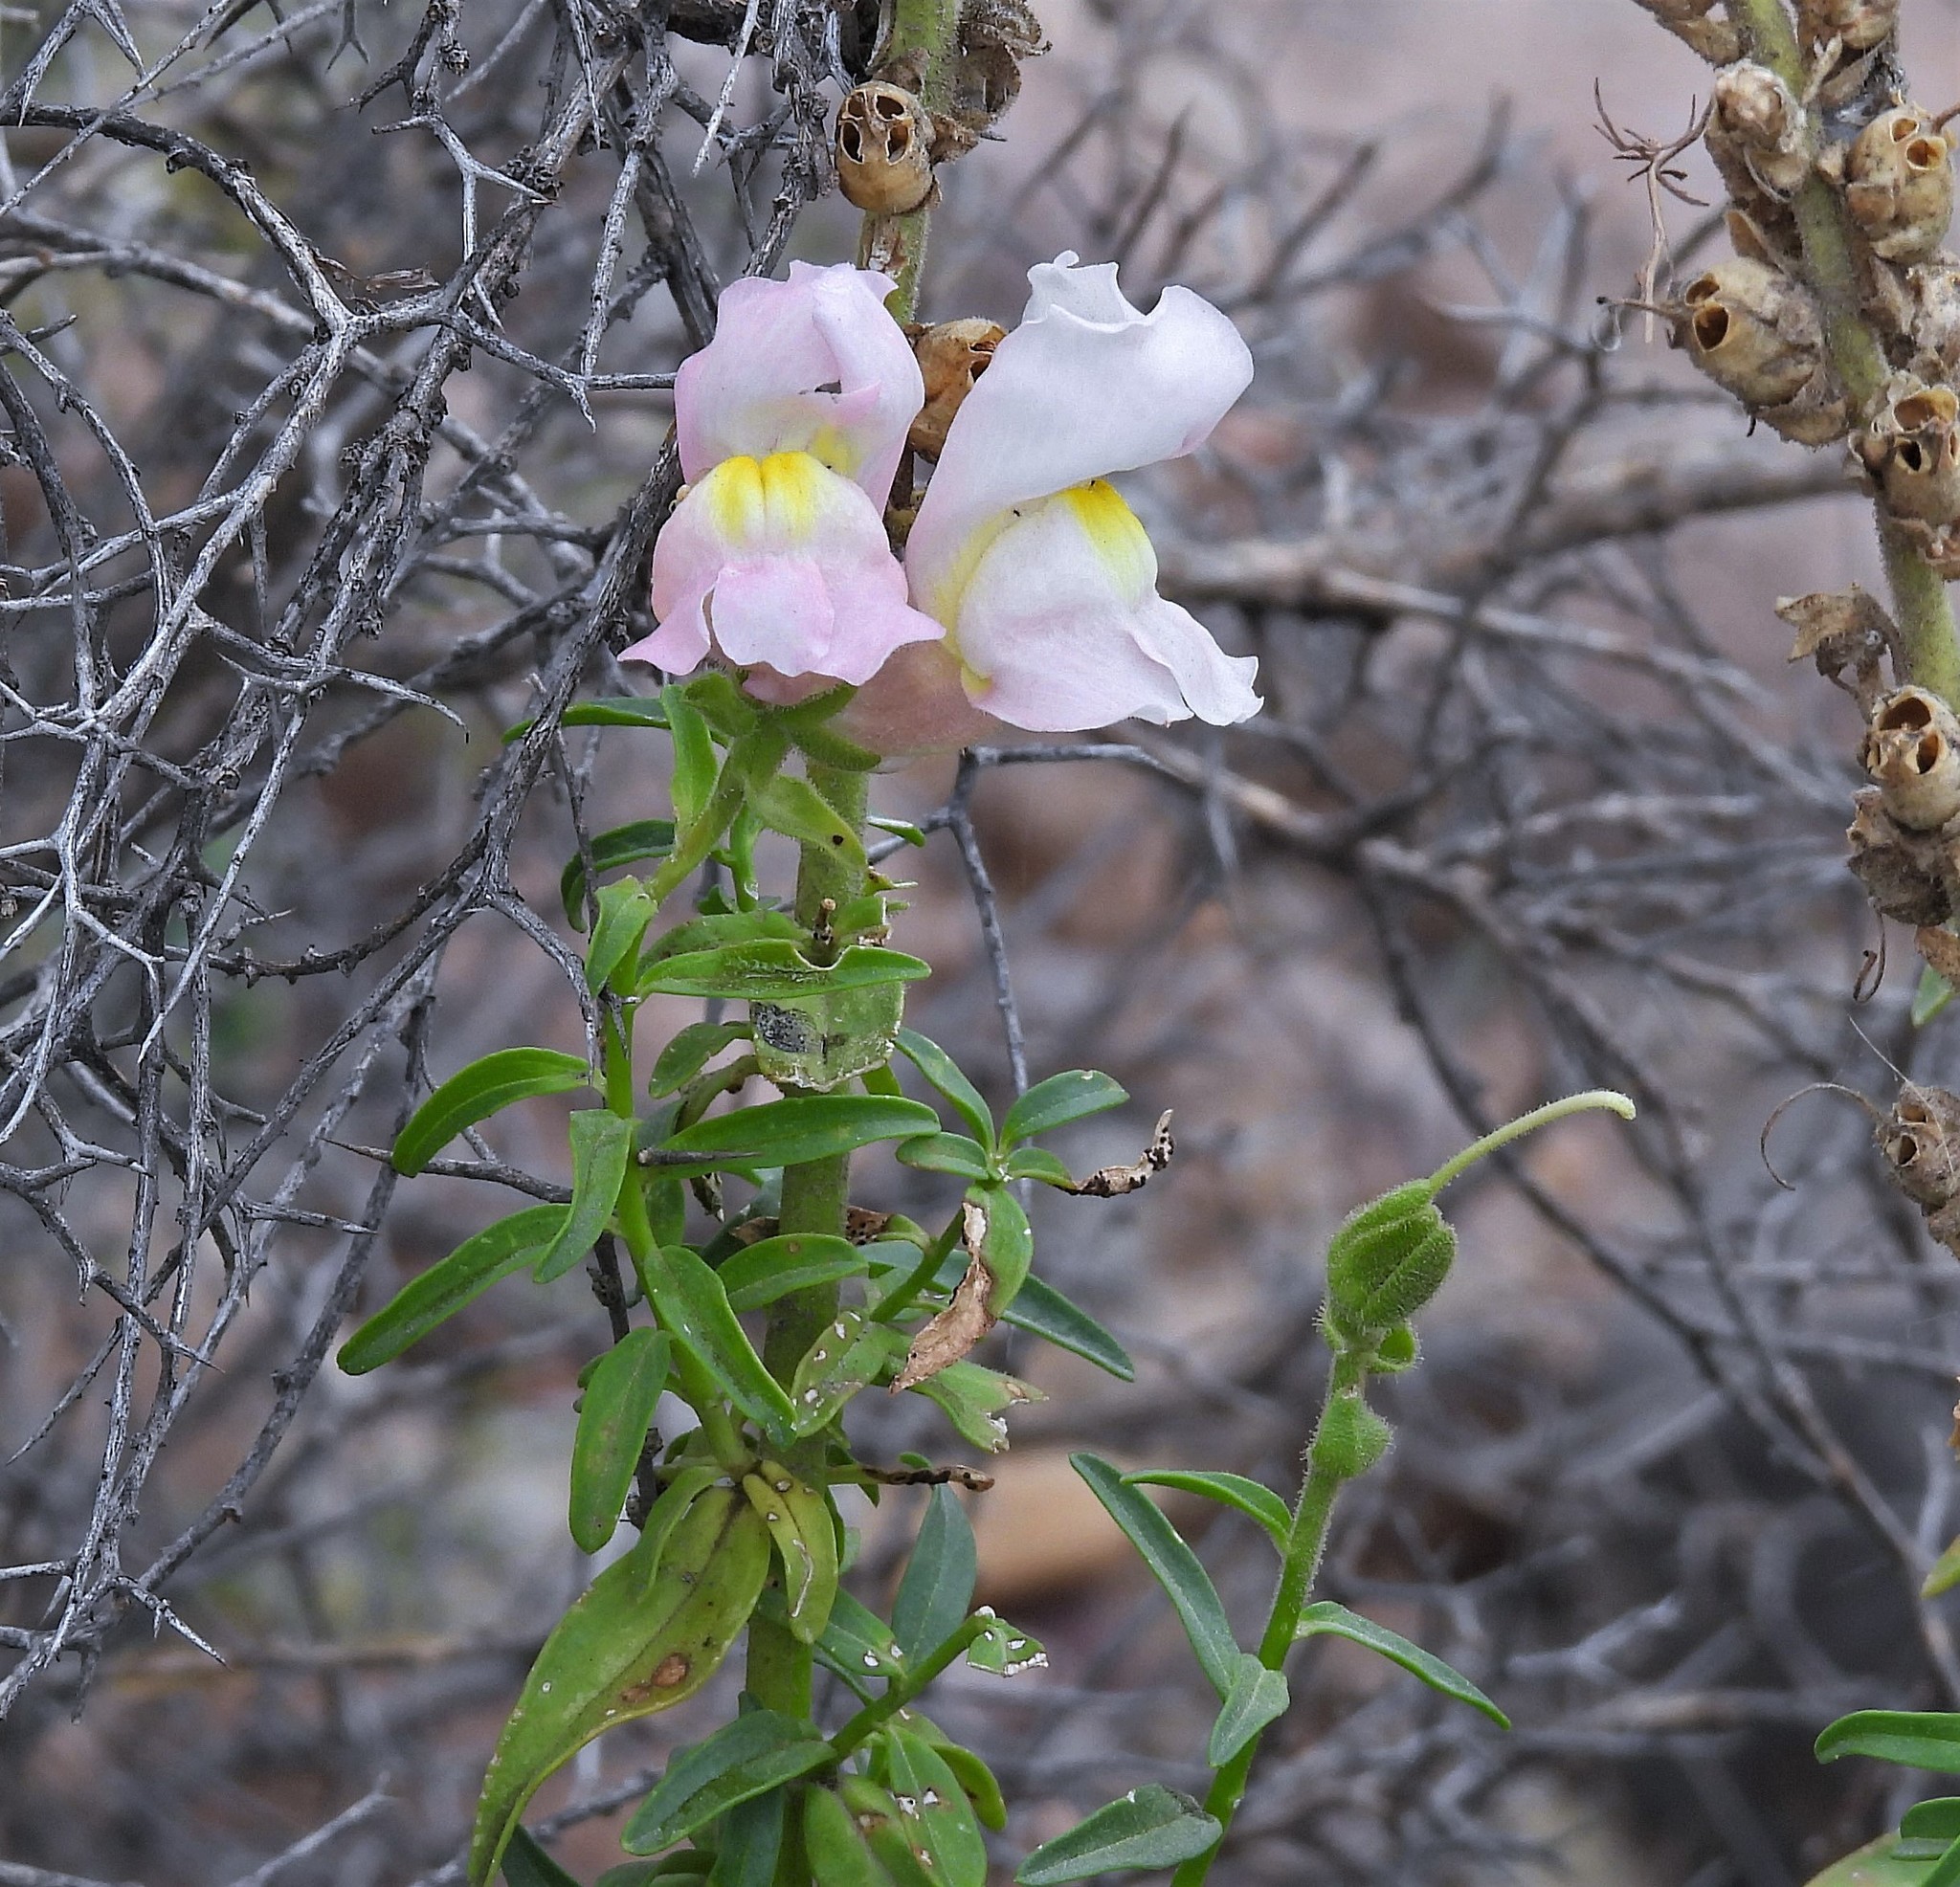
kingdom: Plantae
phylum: Tracheophyta
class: Magnoliopsida
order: Lamiales
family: Plantaginaceae
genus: Antirrhinum
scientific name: Antirrhinum majus
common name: Snapdragon
